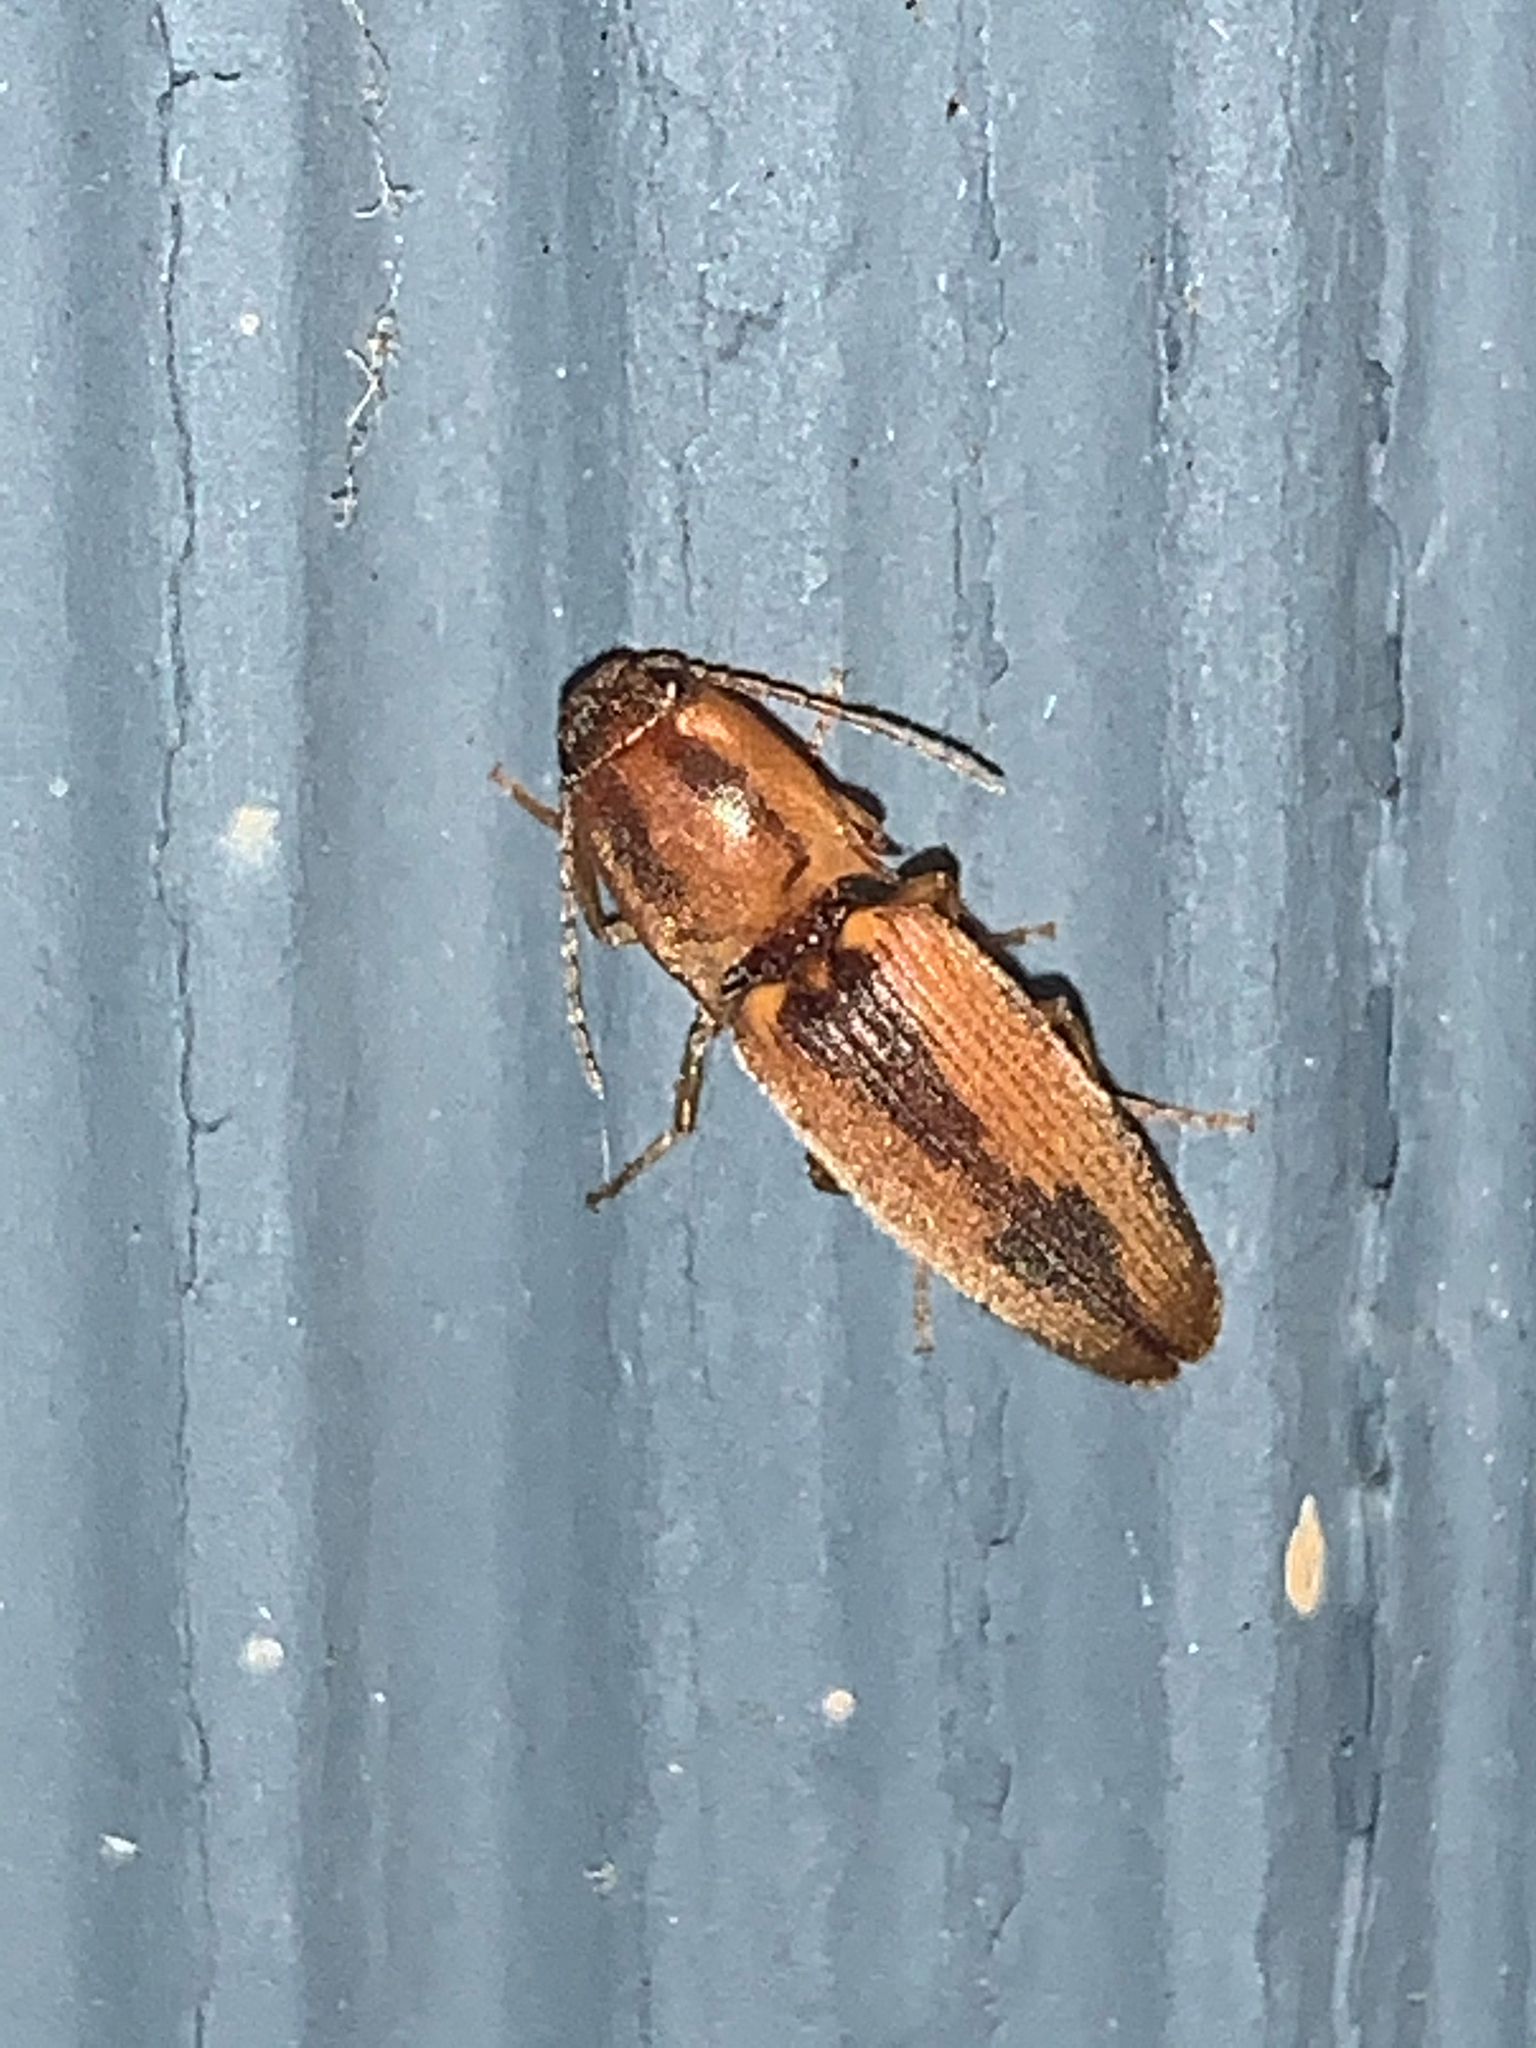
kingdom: Animalia
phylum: Arthropoda
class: Insecta
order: Coleoptera
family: Elateridae
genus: Monocrepidius
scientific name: Monocrepidius
